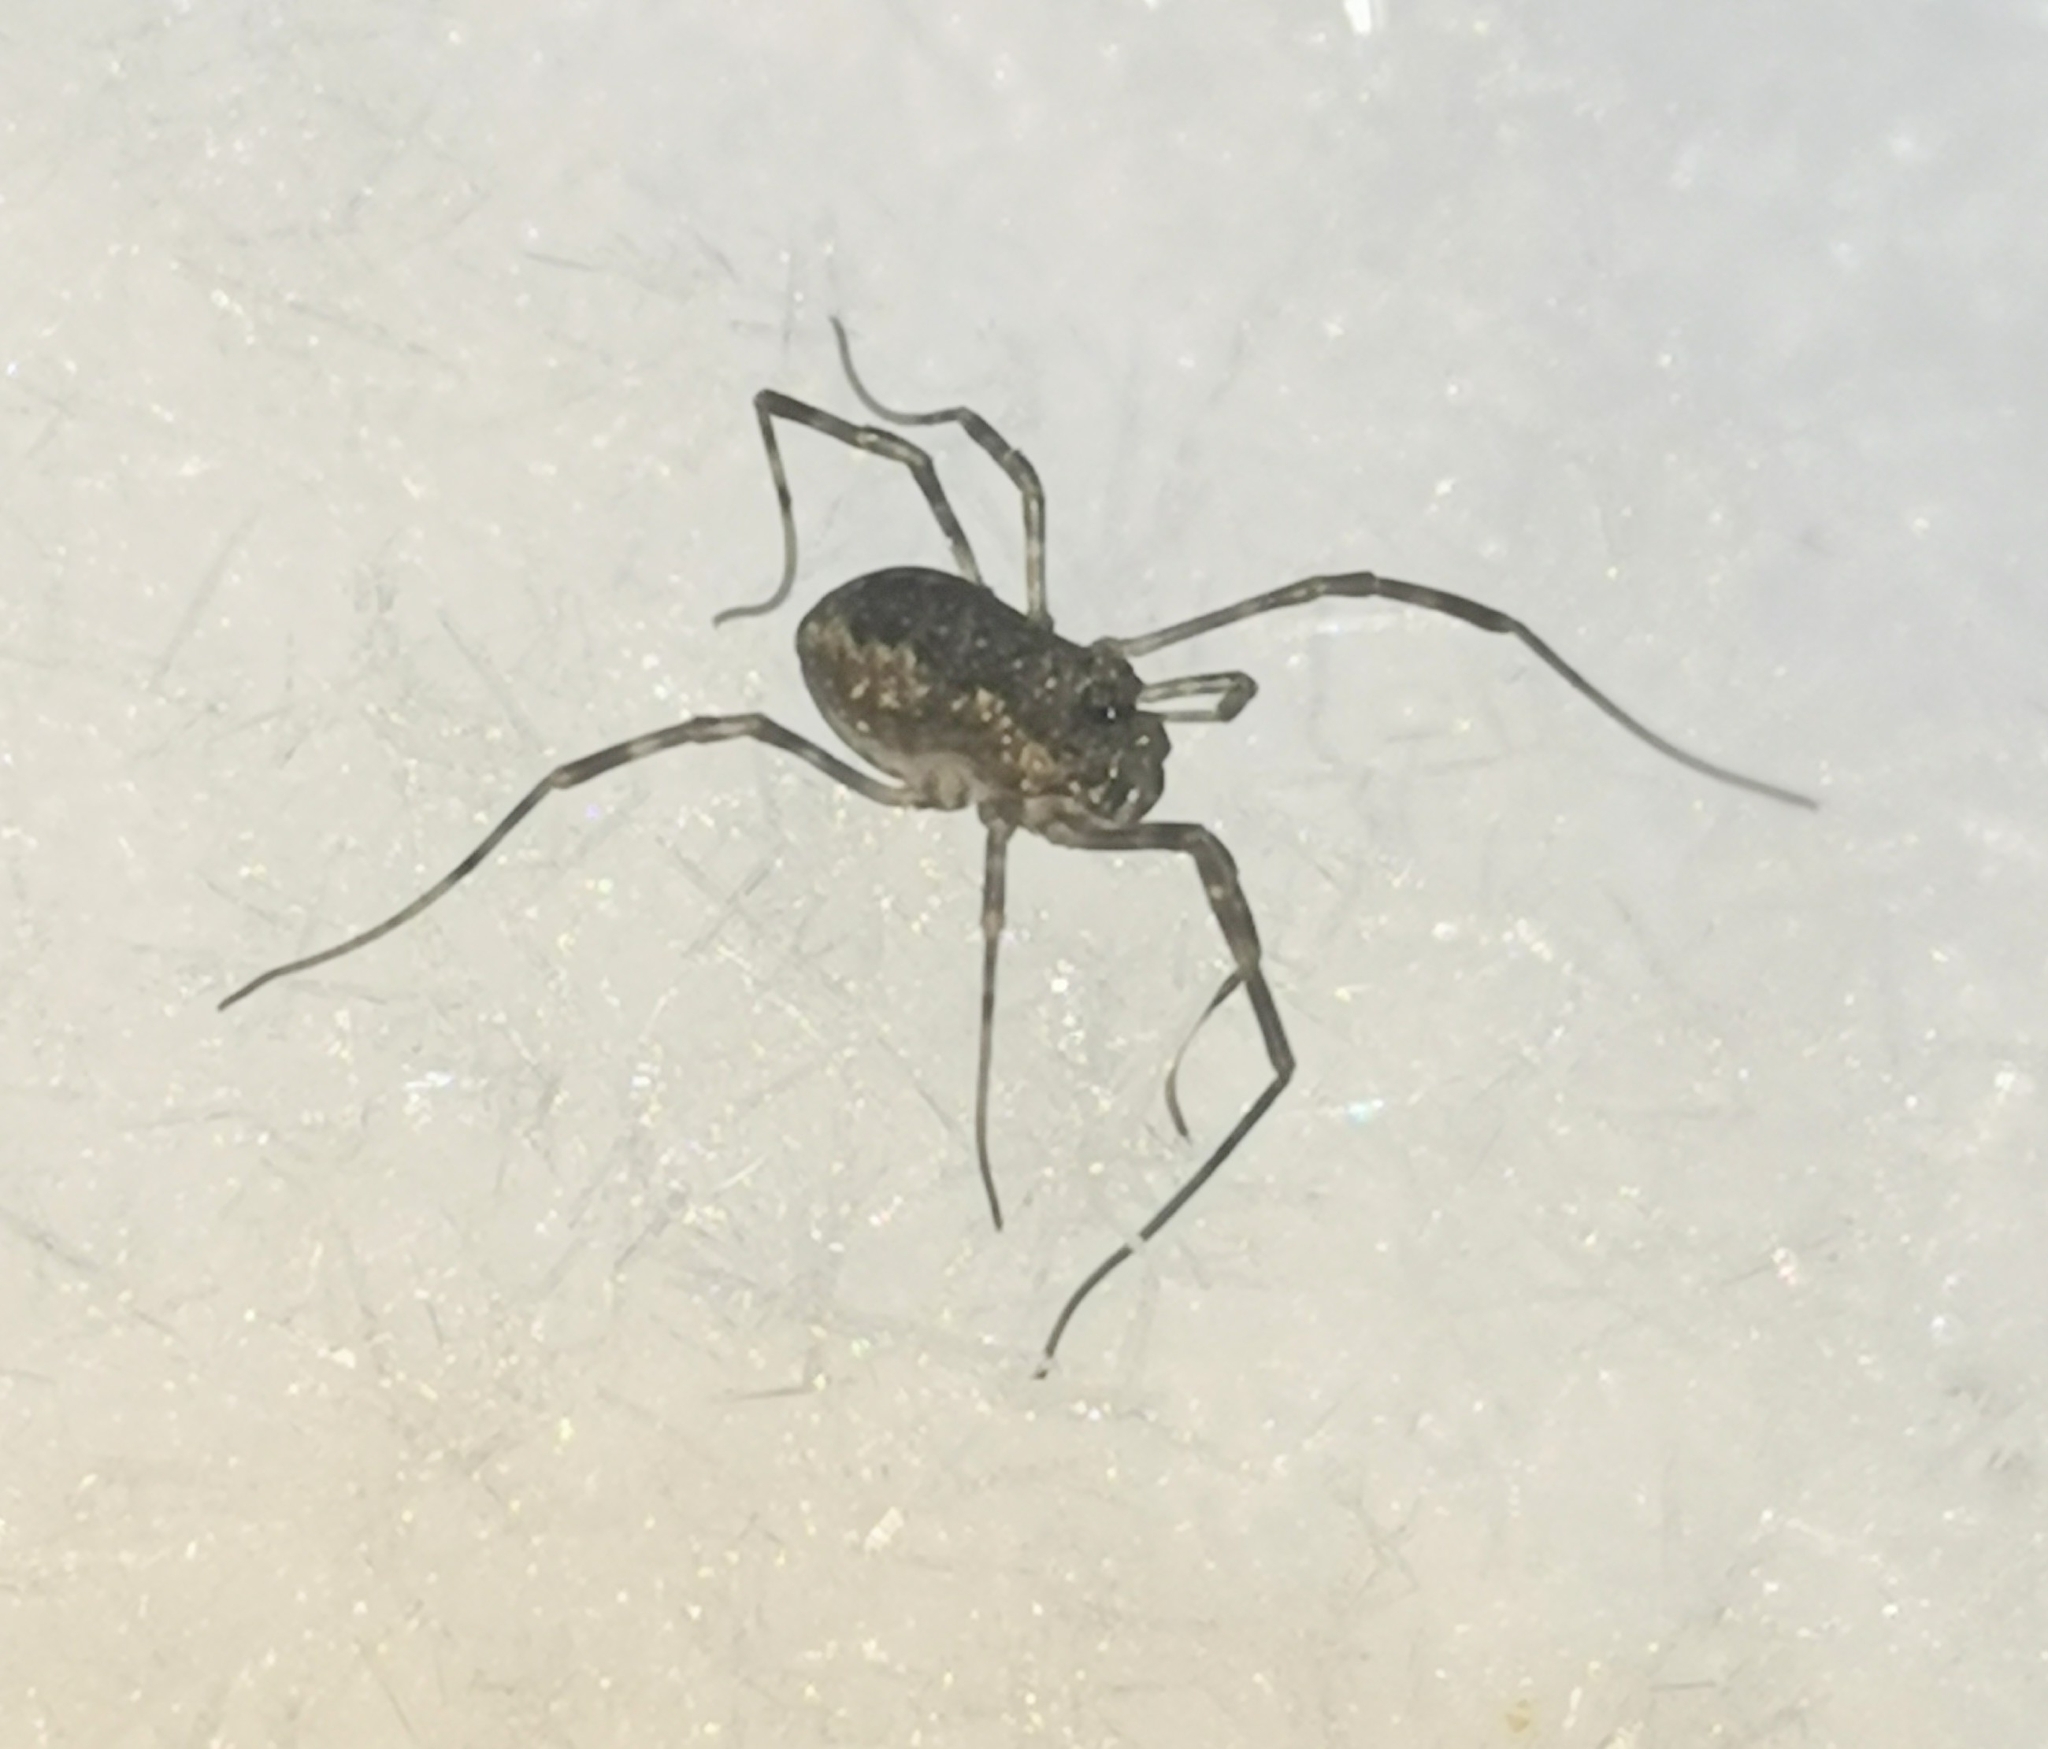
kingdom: Animalia
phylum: Arthropoda
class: Arachnida
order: Opiliones
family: Phalangiidae
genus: Rilaena
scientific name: Rilaena triangularis
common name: Spring harvestman
